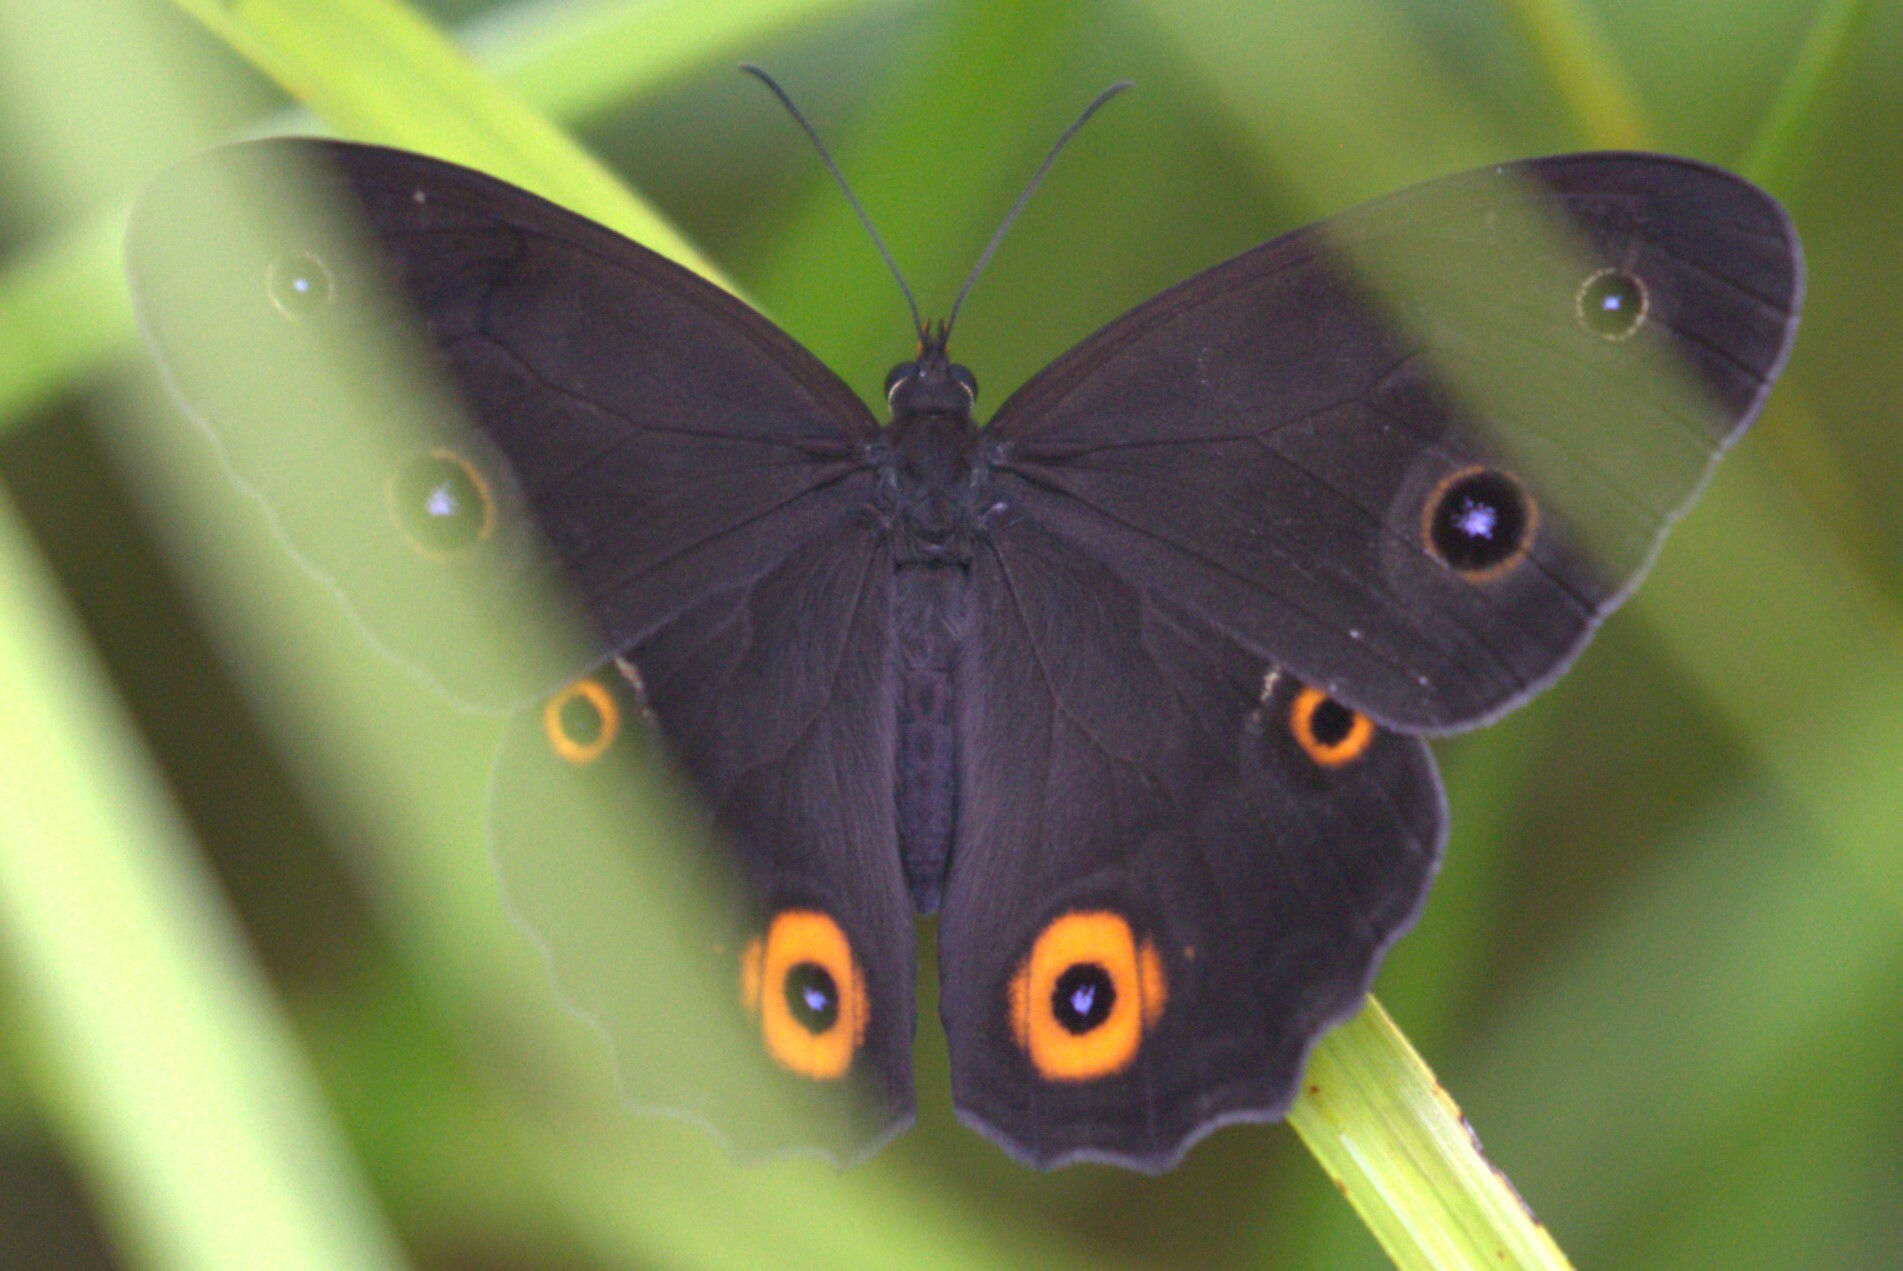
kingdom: Animalia
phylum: Arthropoda
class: Insecta
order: Lepidoptera
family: Nymphalidae
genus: Tisiphone
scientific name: Tisiphone abeona
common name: Swordgrass brown
